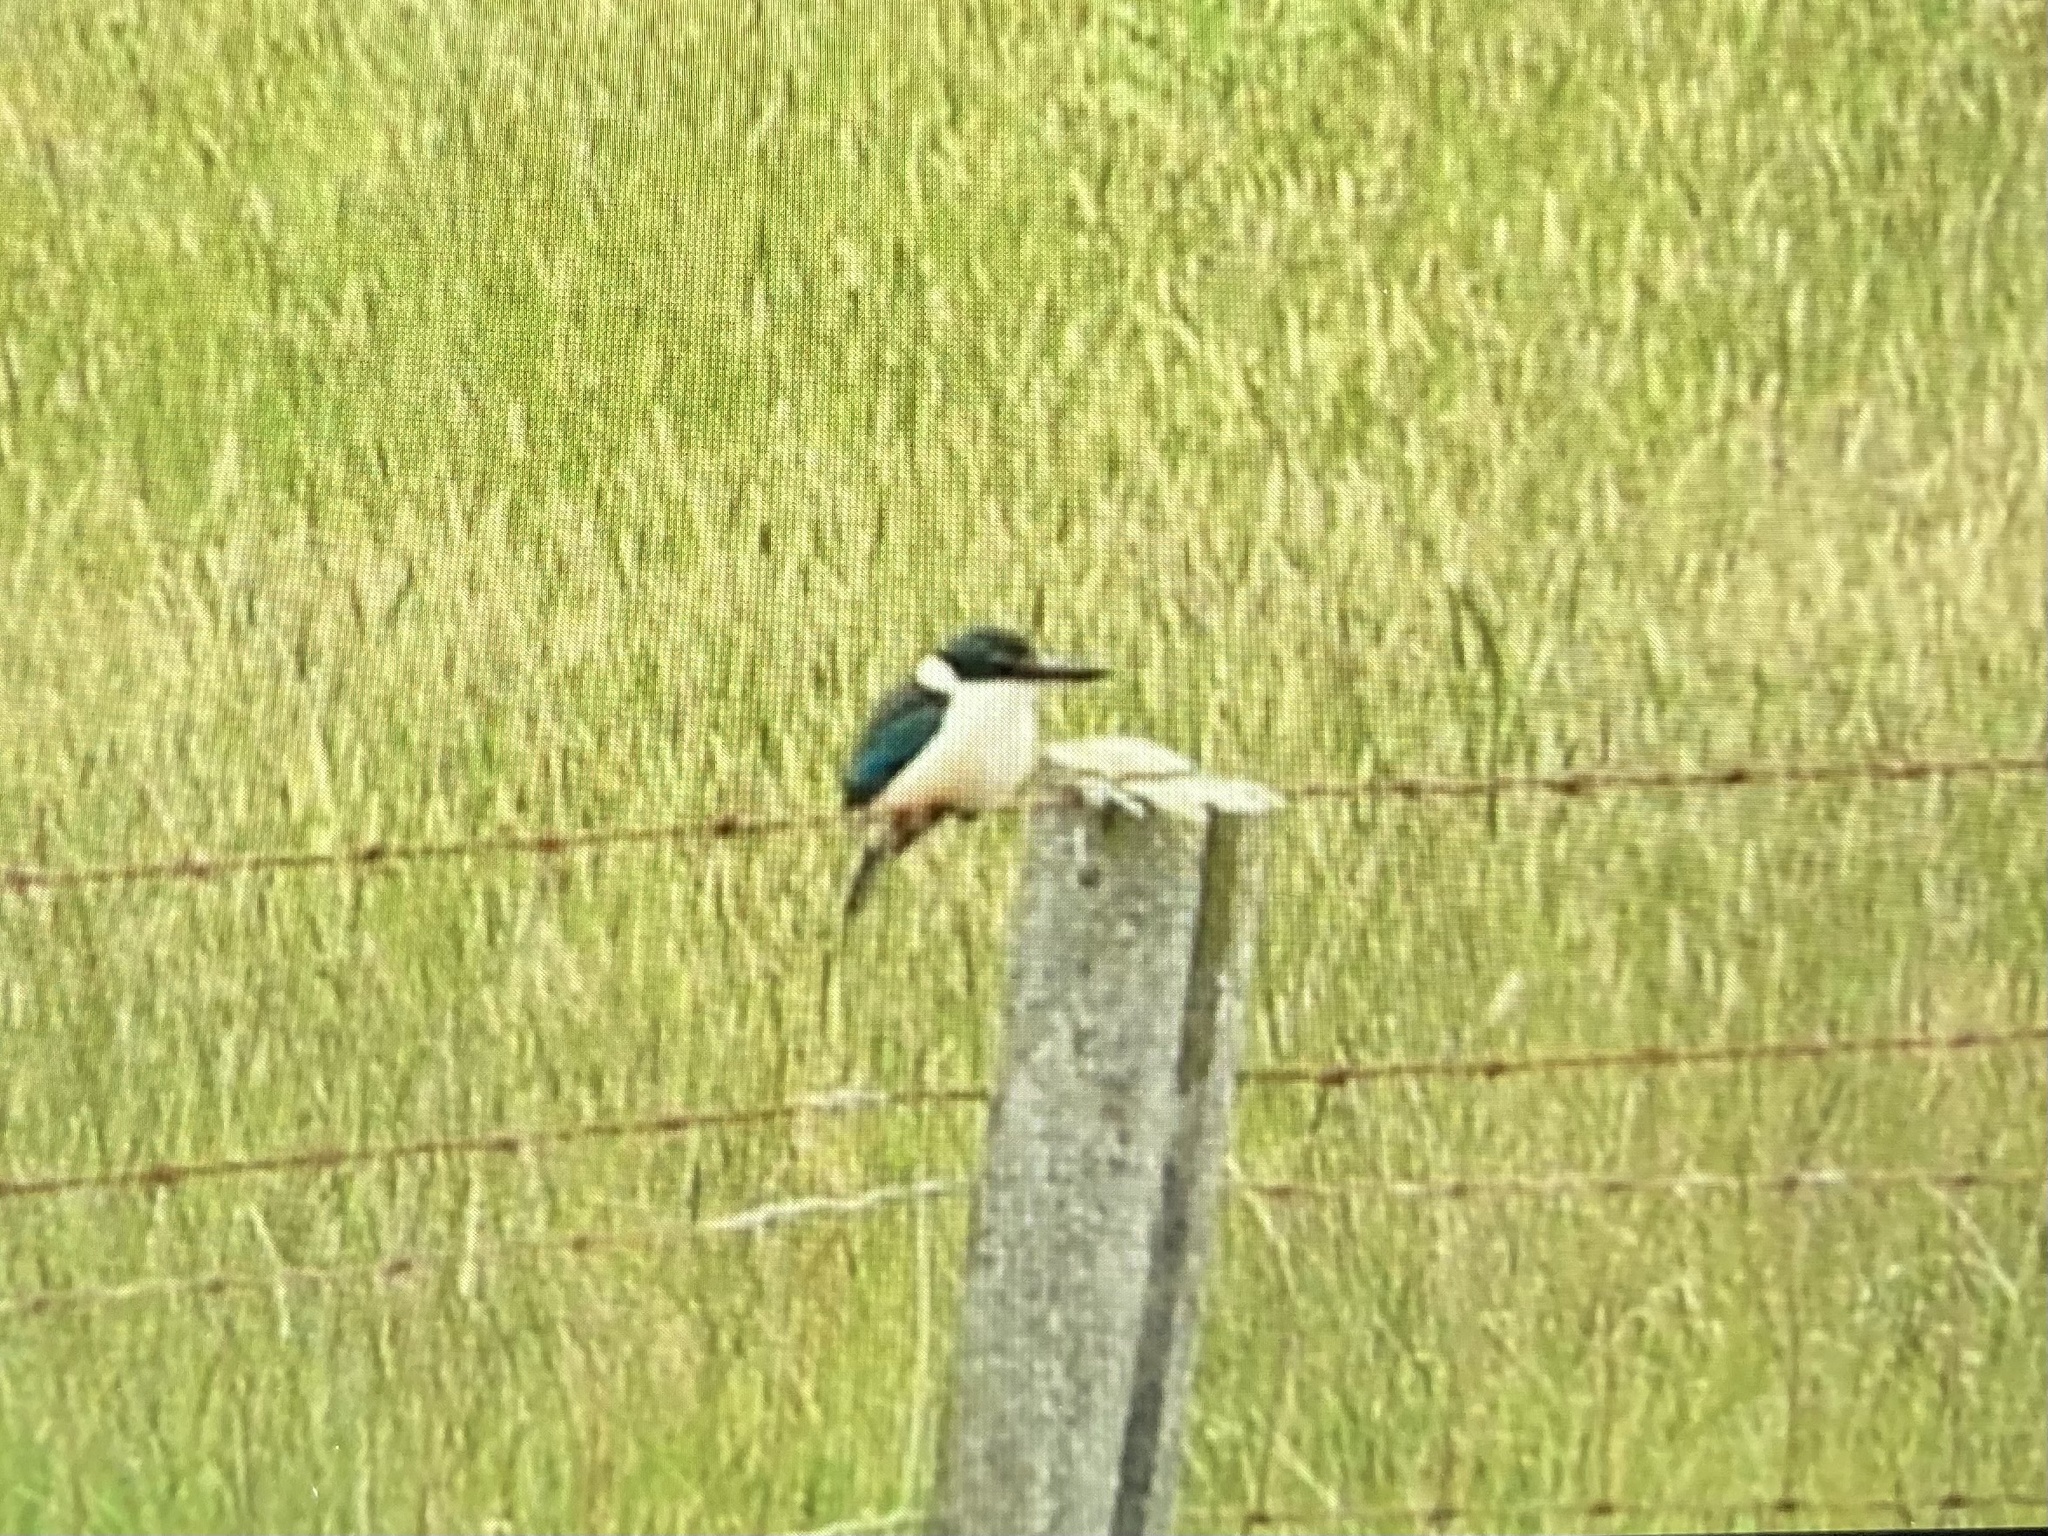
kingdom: Animalia
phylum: Chordata
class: Aves
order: Coraciiformes
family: Alcedinidae
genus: Todiramphus
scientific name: Todiramphus sanctus
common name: Sacred kingfisher
